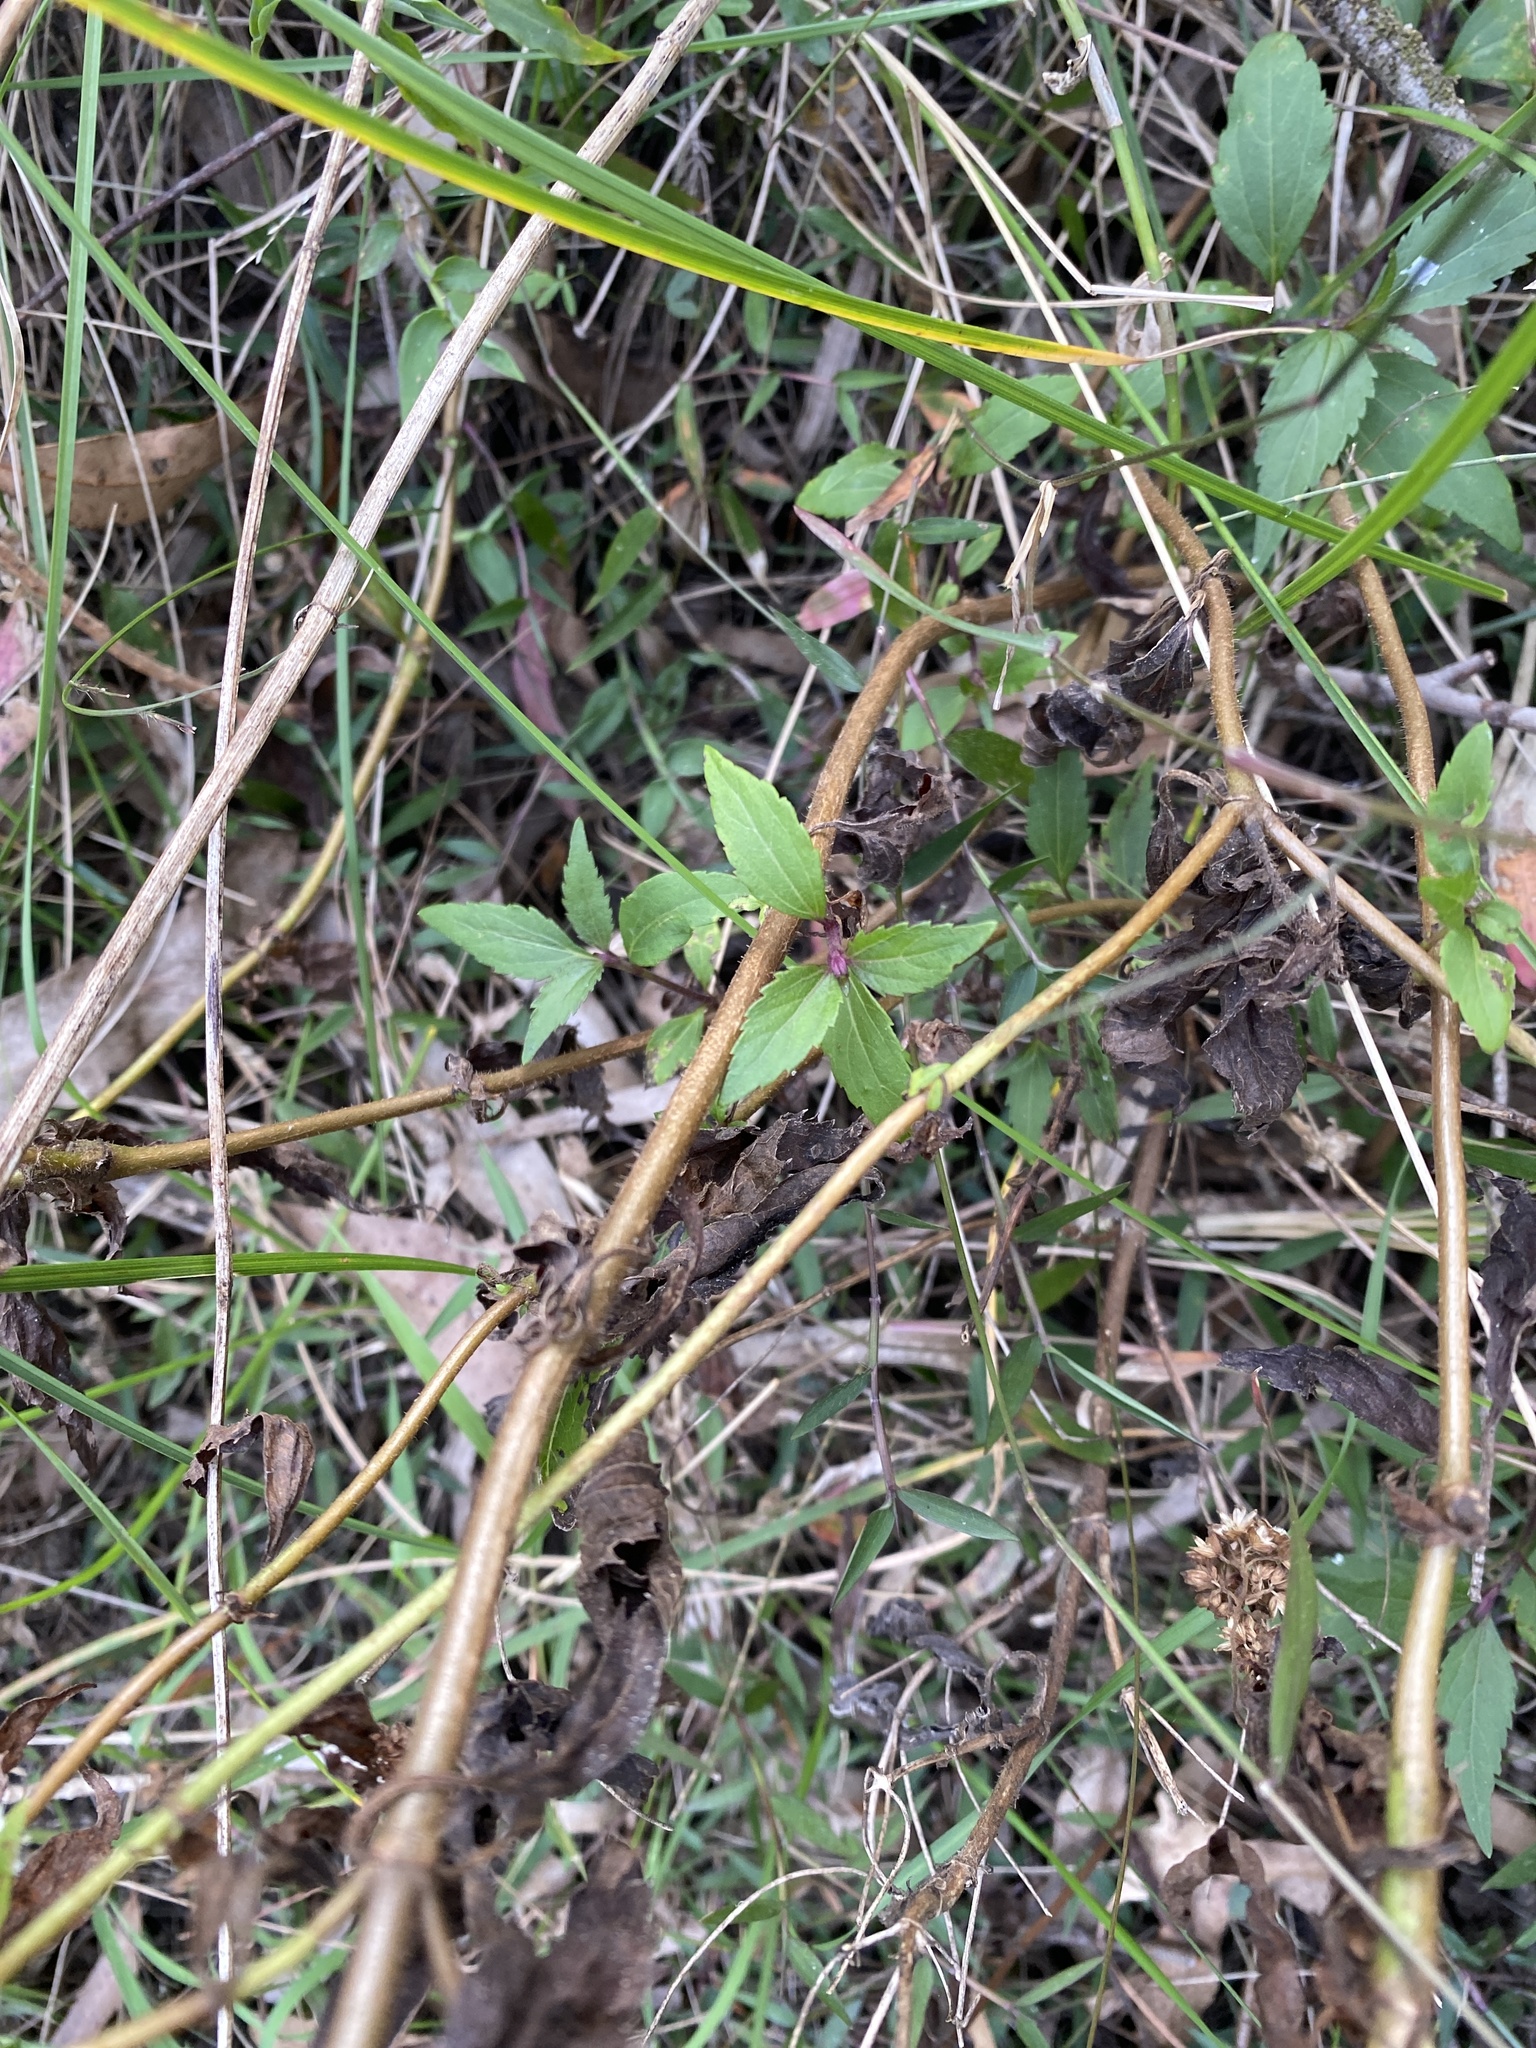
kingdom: Plantae
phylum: Tracheophyta
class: Magnoliopsida
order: Asterales
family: Asteraceae
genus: Ageratina
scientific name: Ageratina riparia
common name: Creeping croftonweed
